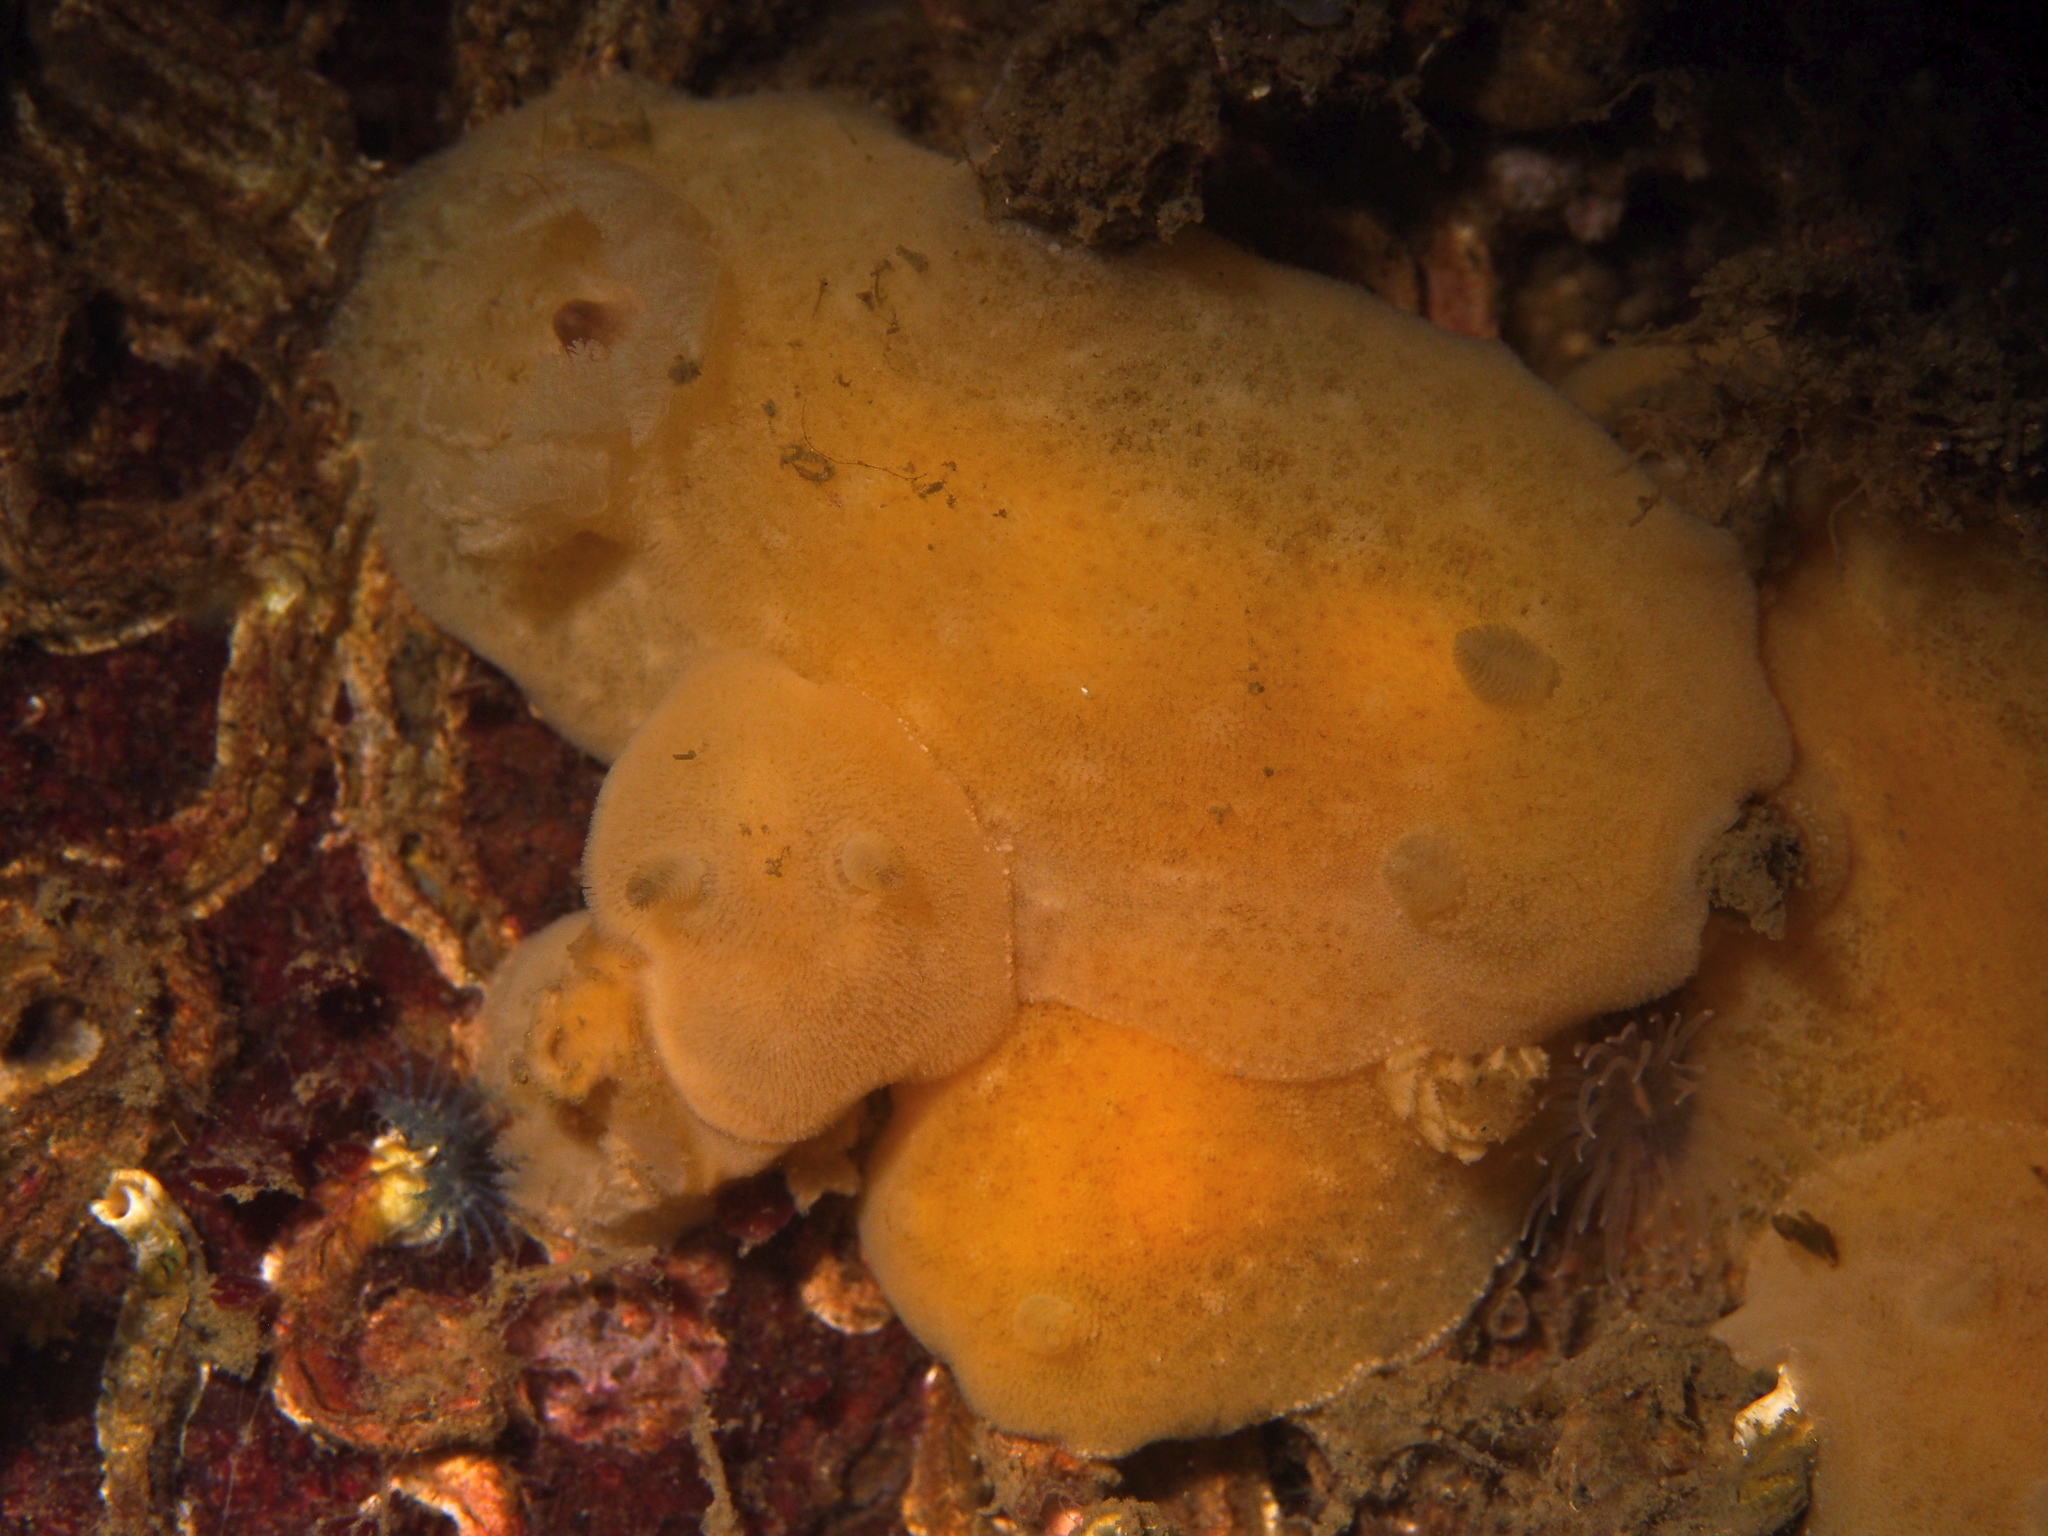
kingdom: Animalia
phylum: Mollusca
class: Gastropoda
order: Nudibranchia
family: Discodorididae
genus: Jorunna
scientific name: Jorunna tomentosa
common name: Grey sea slug
